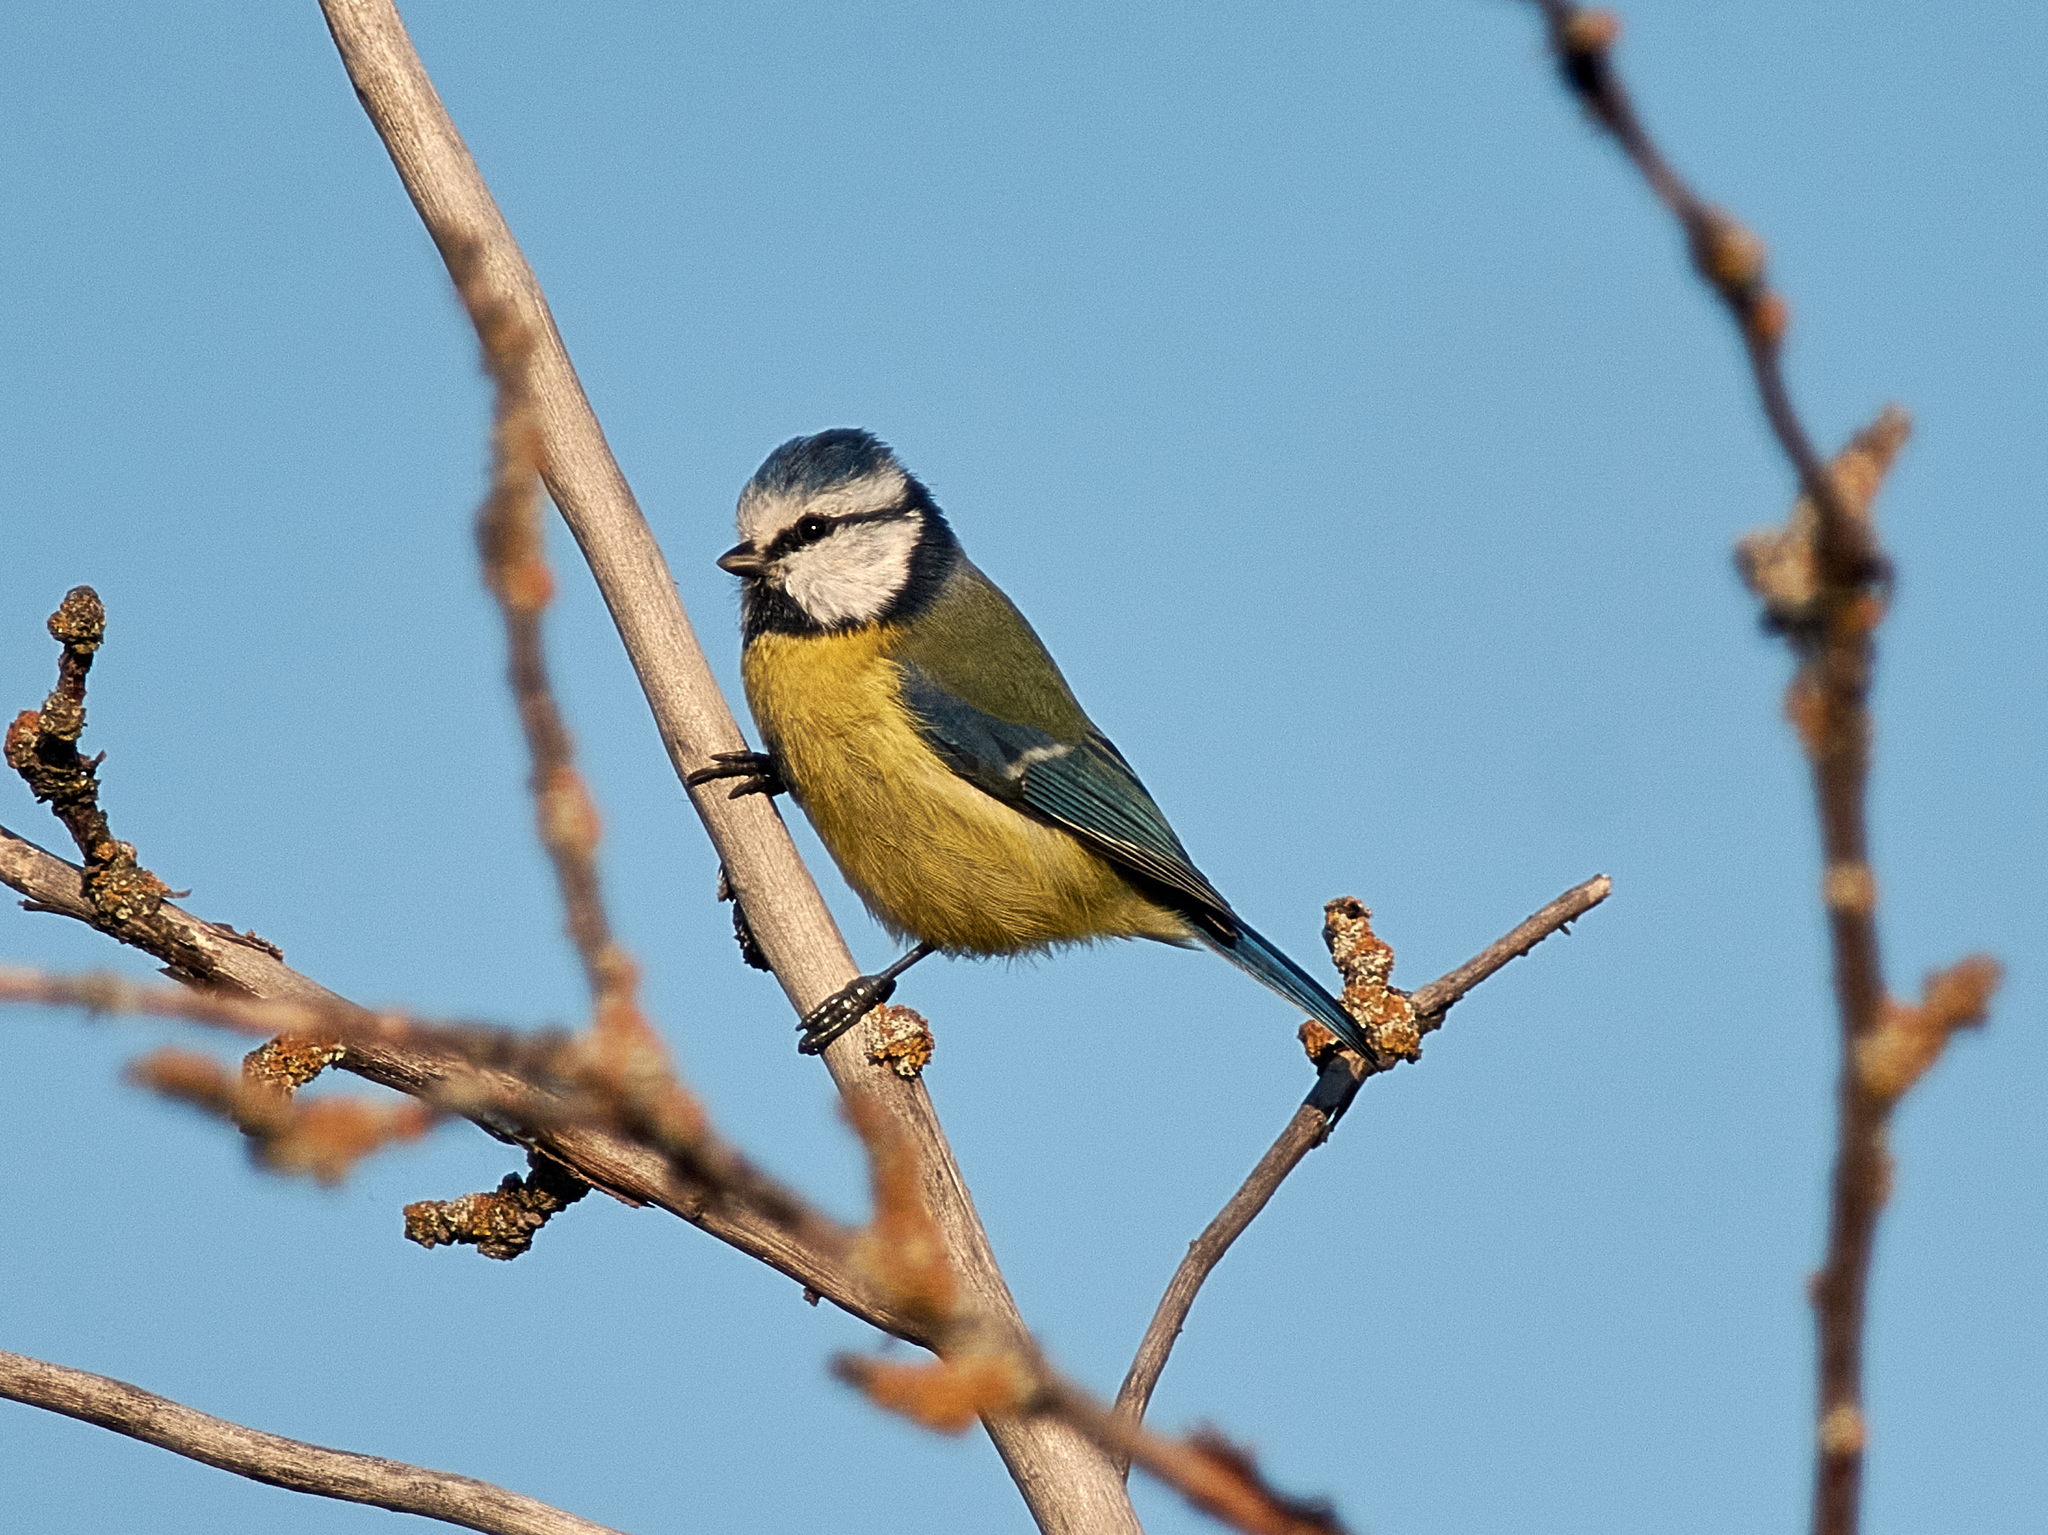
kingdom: Animalia
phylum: Chordata
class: Aves
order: Passeriformes
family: Paridae
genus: Cyanistes
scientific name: Cyanistes caeruleus
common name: Eurasian blue tit
